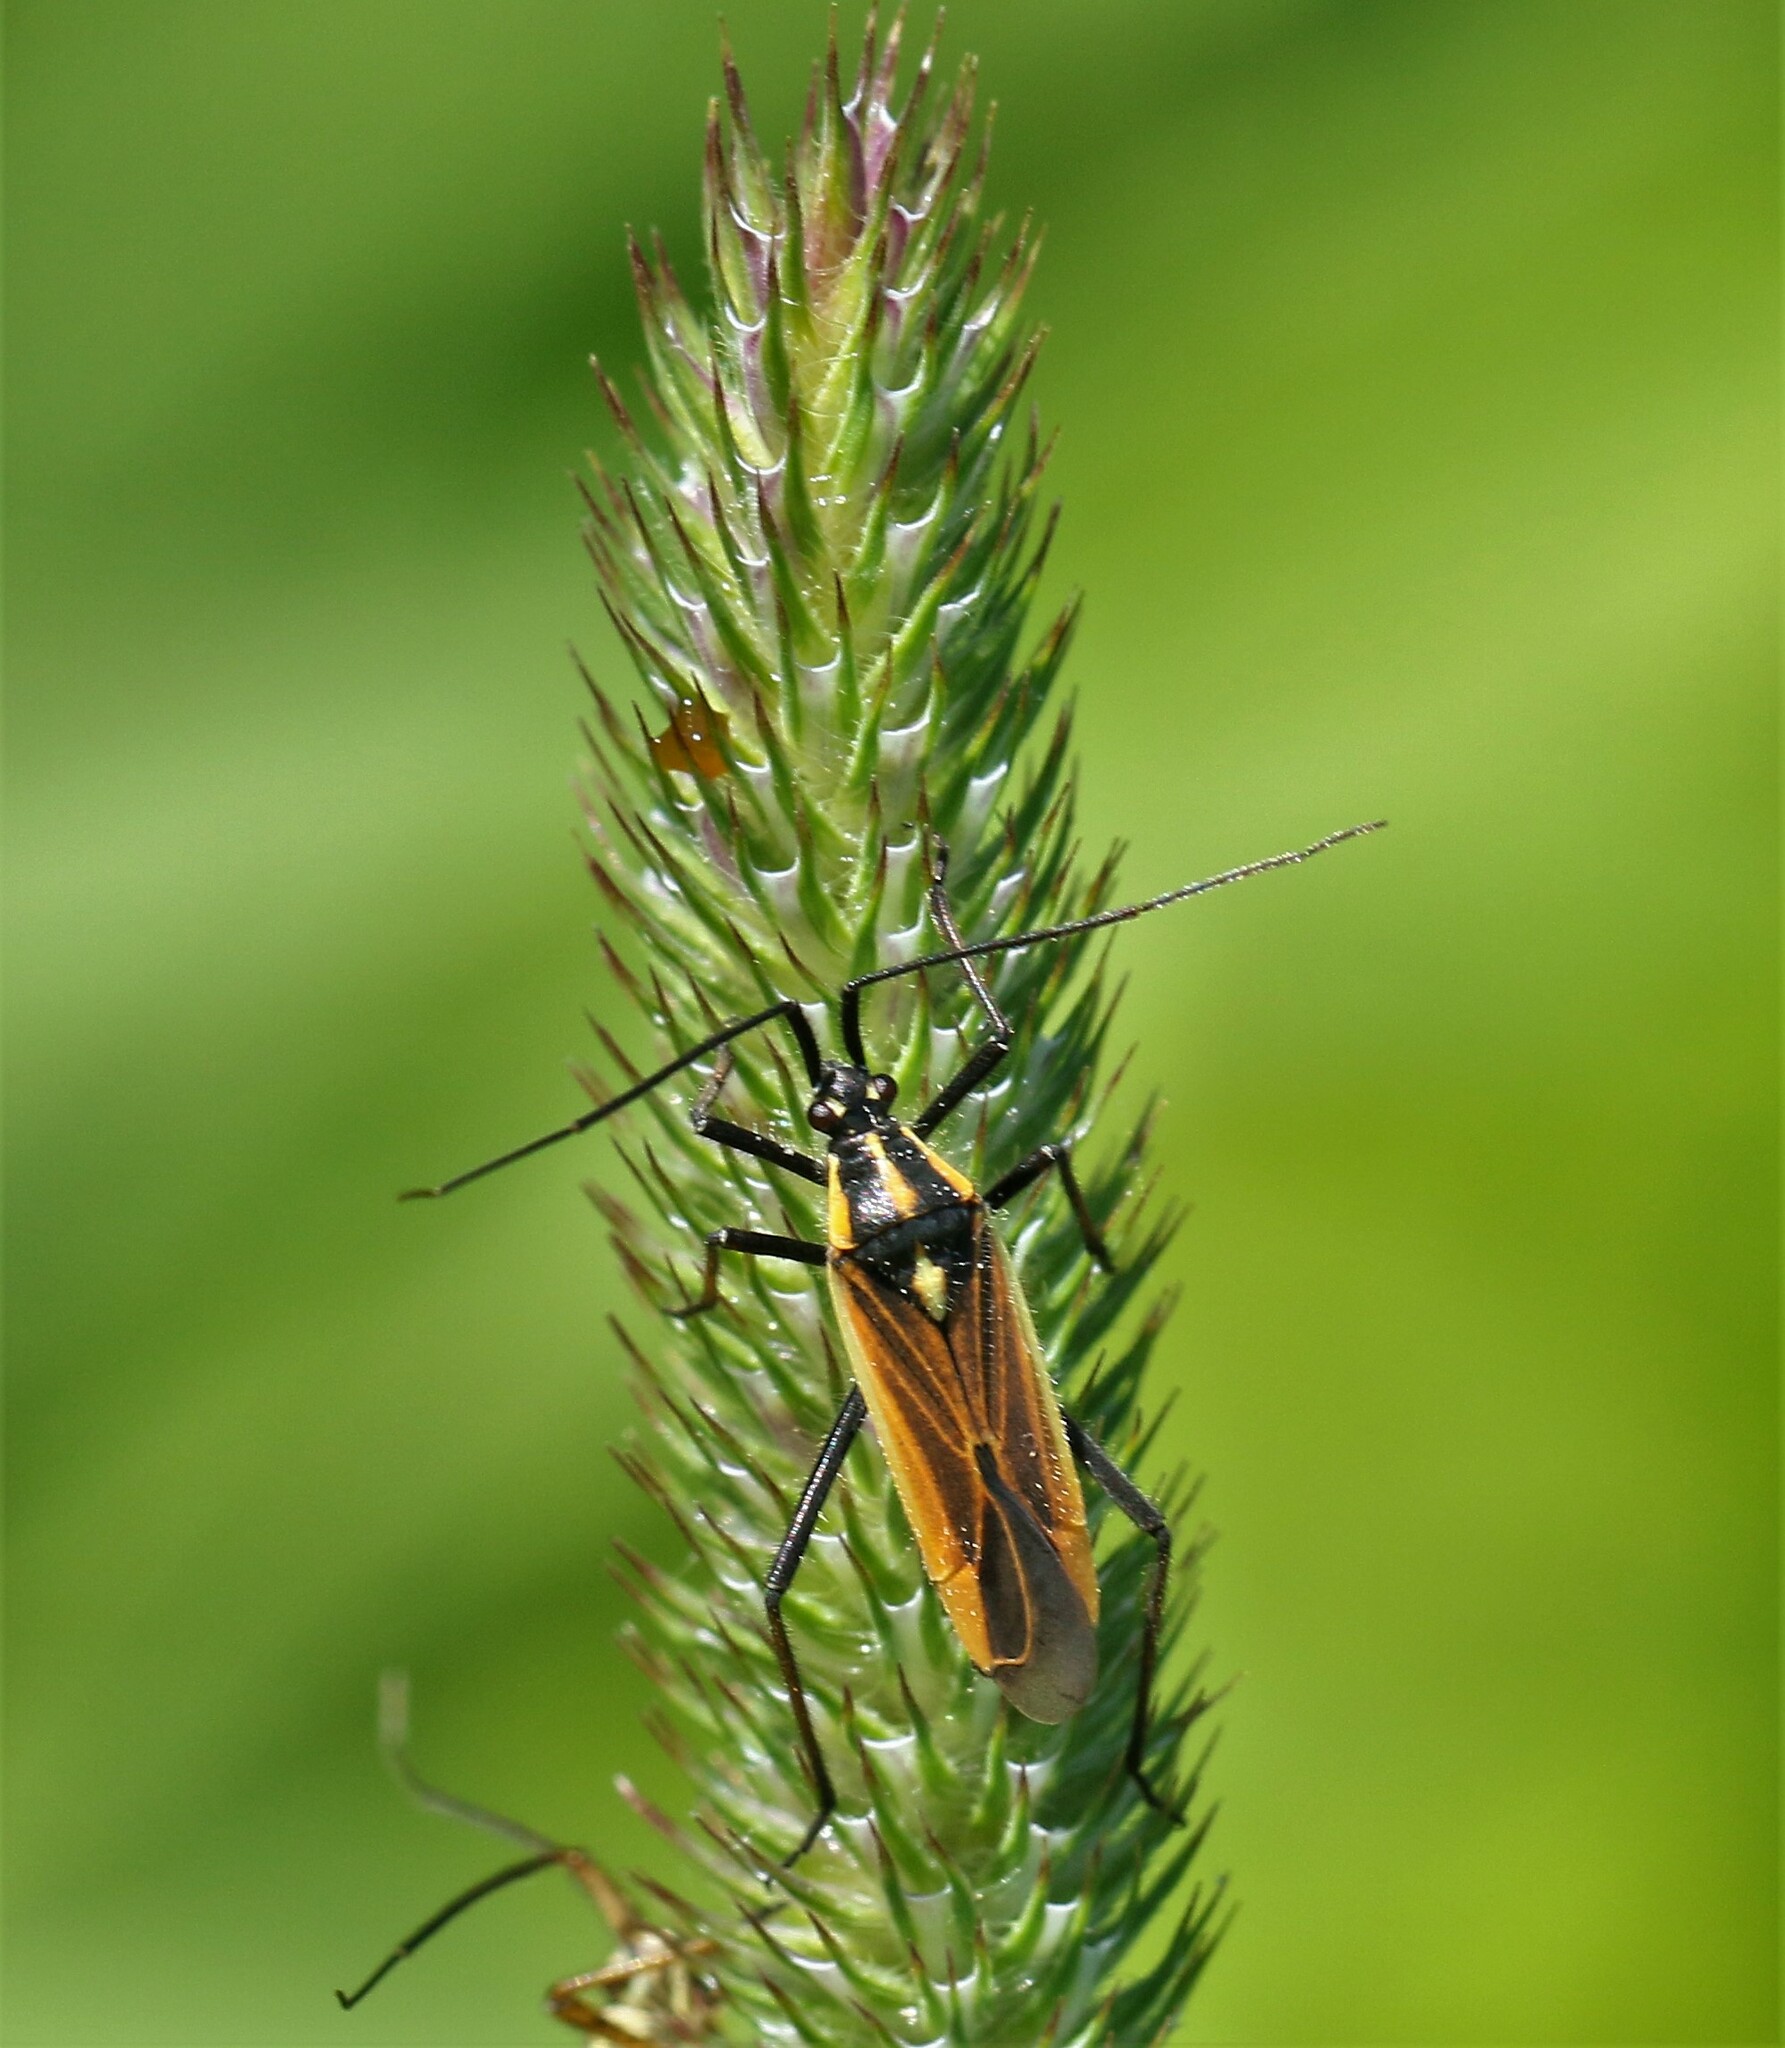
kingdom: Animalia
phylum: Arthropoda
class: Insecta
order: Hemiptera
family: Miridae
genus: Leptopterna
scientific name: Leptopterna dolabrata
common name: Meadow plant bug
